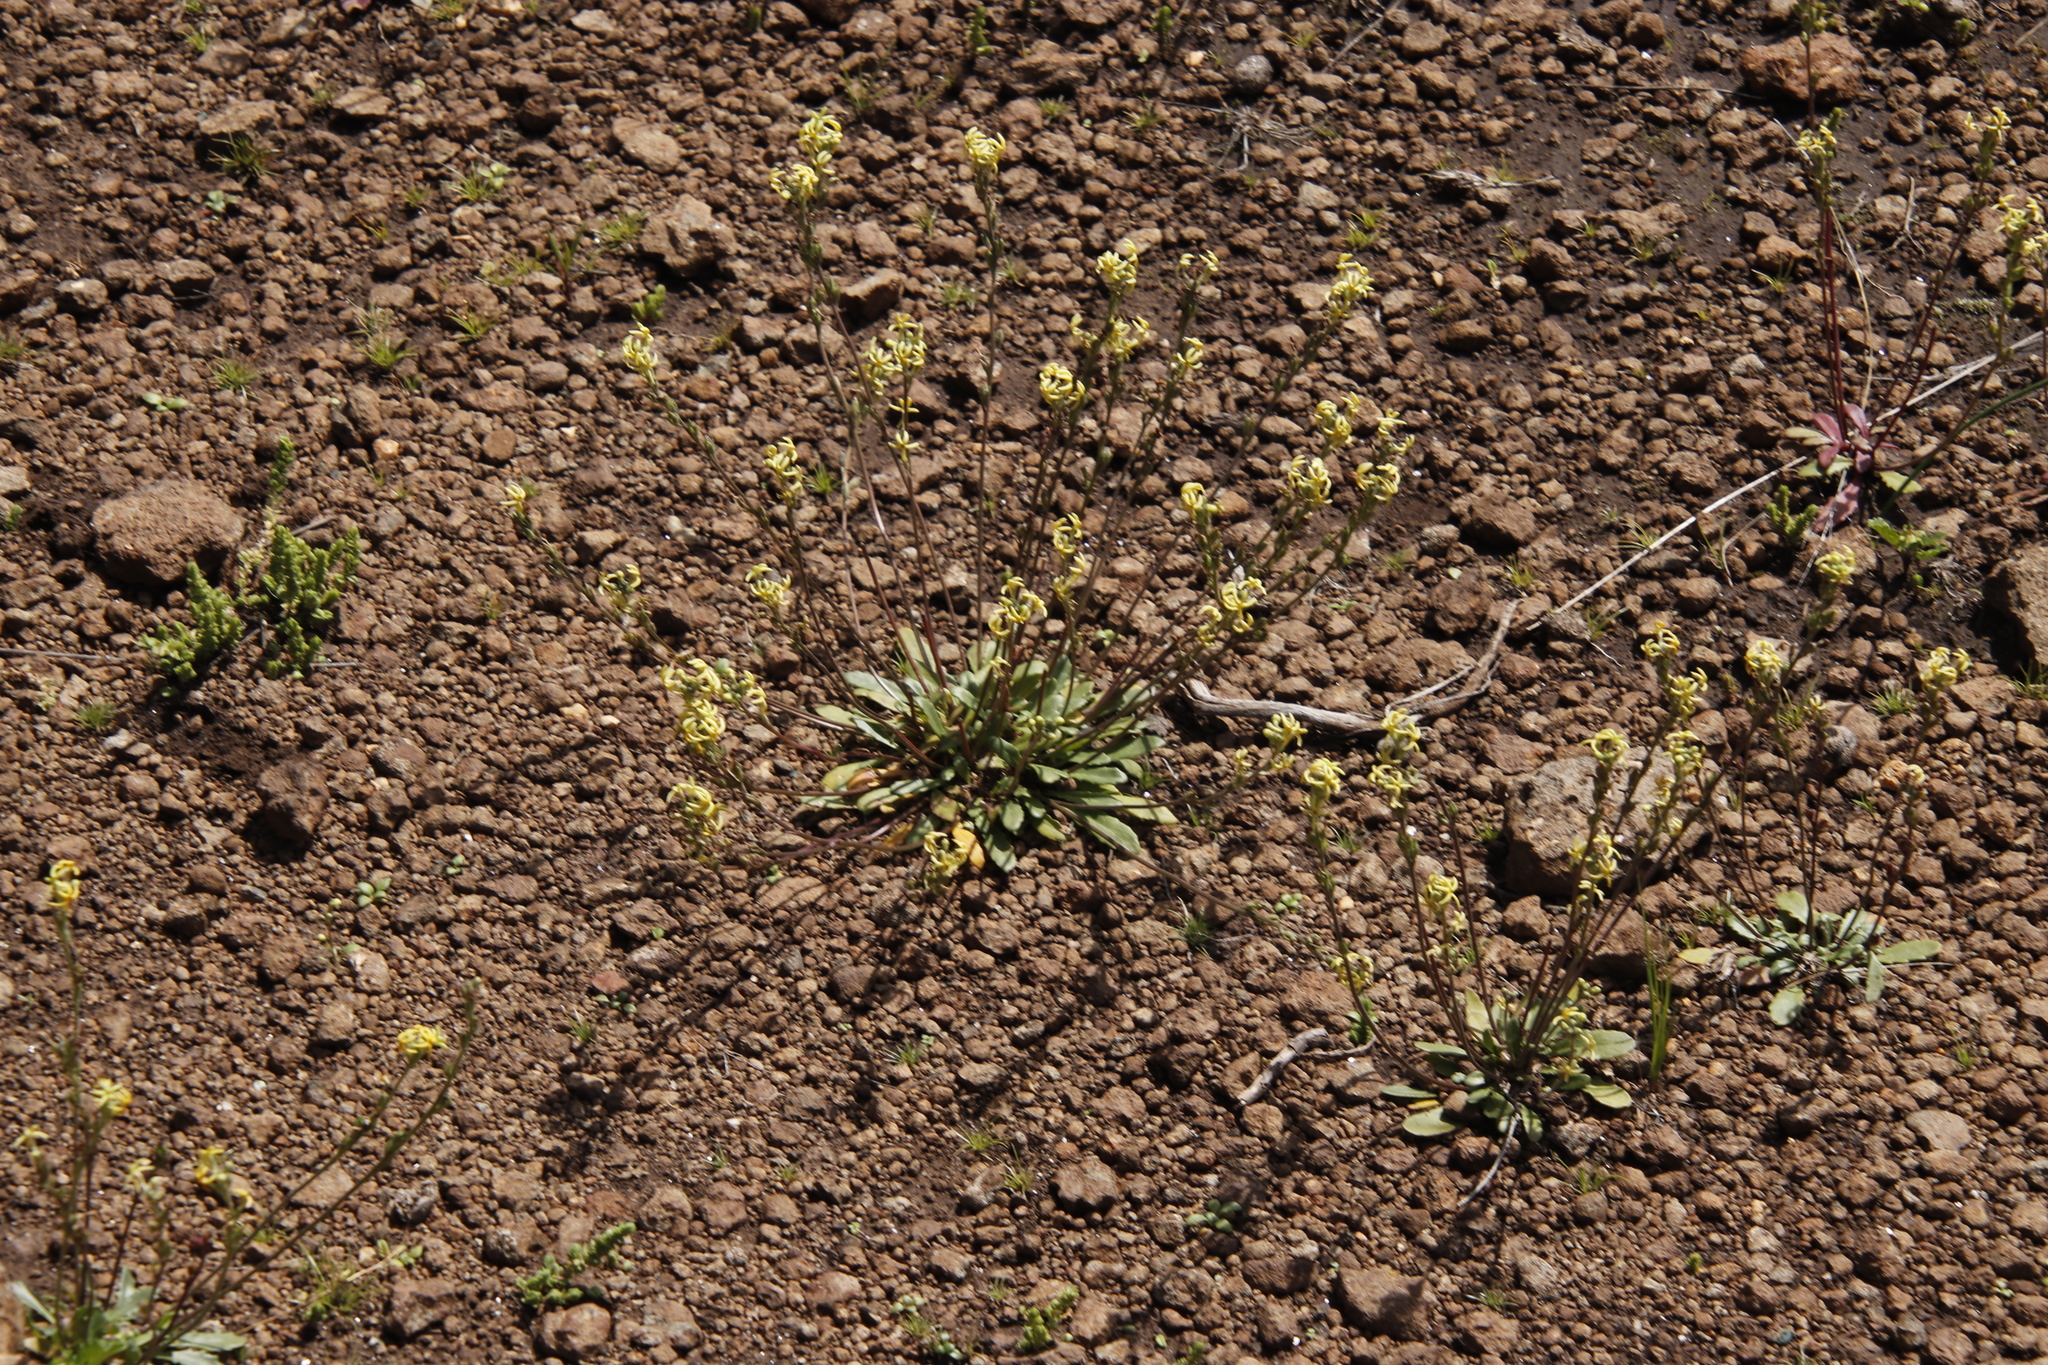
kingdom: Plantae
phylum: Tracheophyta
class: Magnoliopsida
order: Lamiales
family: Scrophulariaceae
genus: Manulea
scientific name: Manulea platystigma
